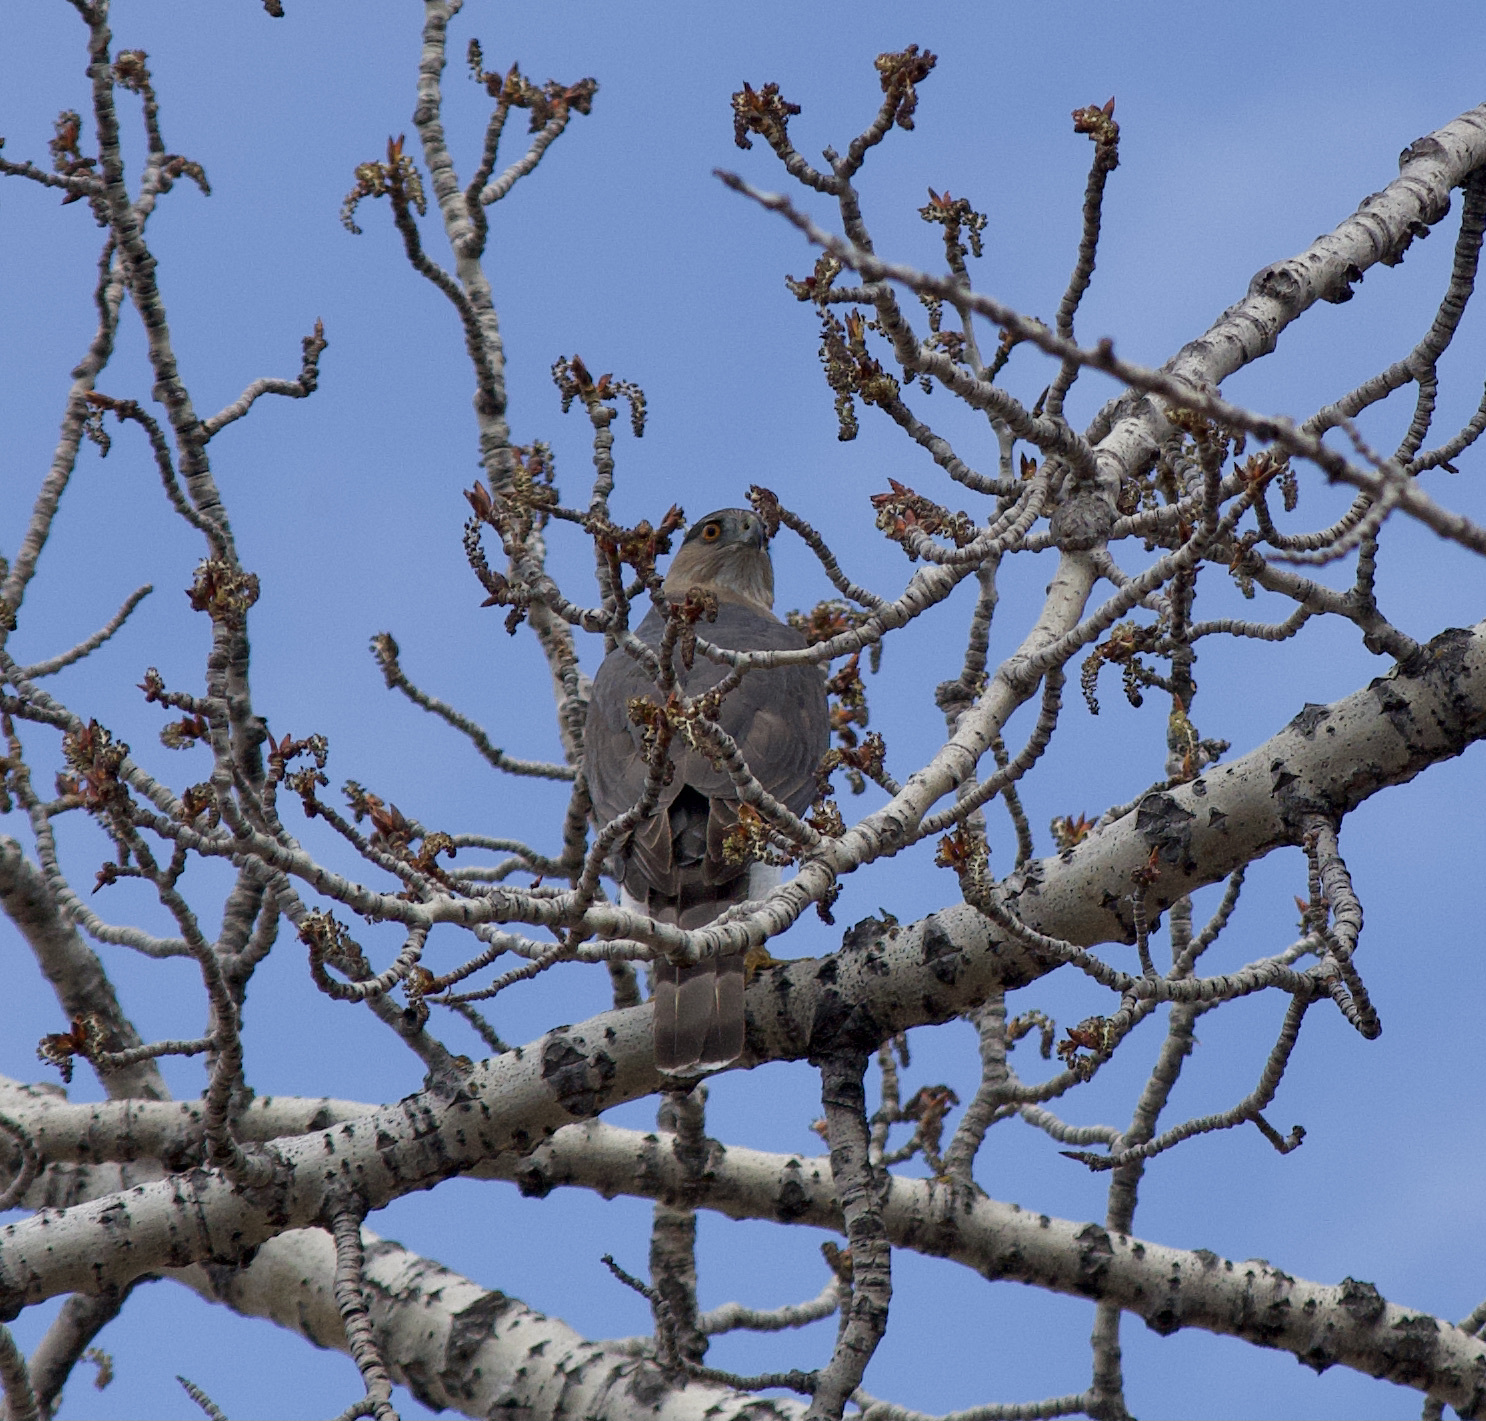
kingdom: Animalia
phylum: Chordata
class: Aves
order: Accipitriformes
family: Accipitridae
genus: Accipiter
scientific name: Accipiter cooperii
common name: Cooper's hawk
